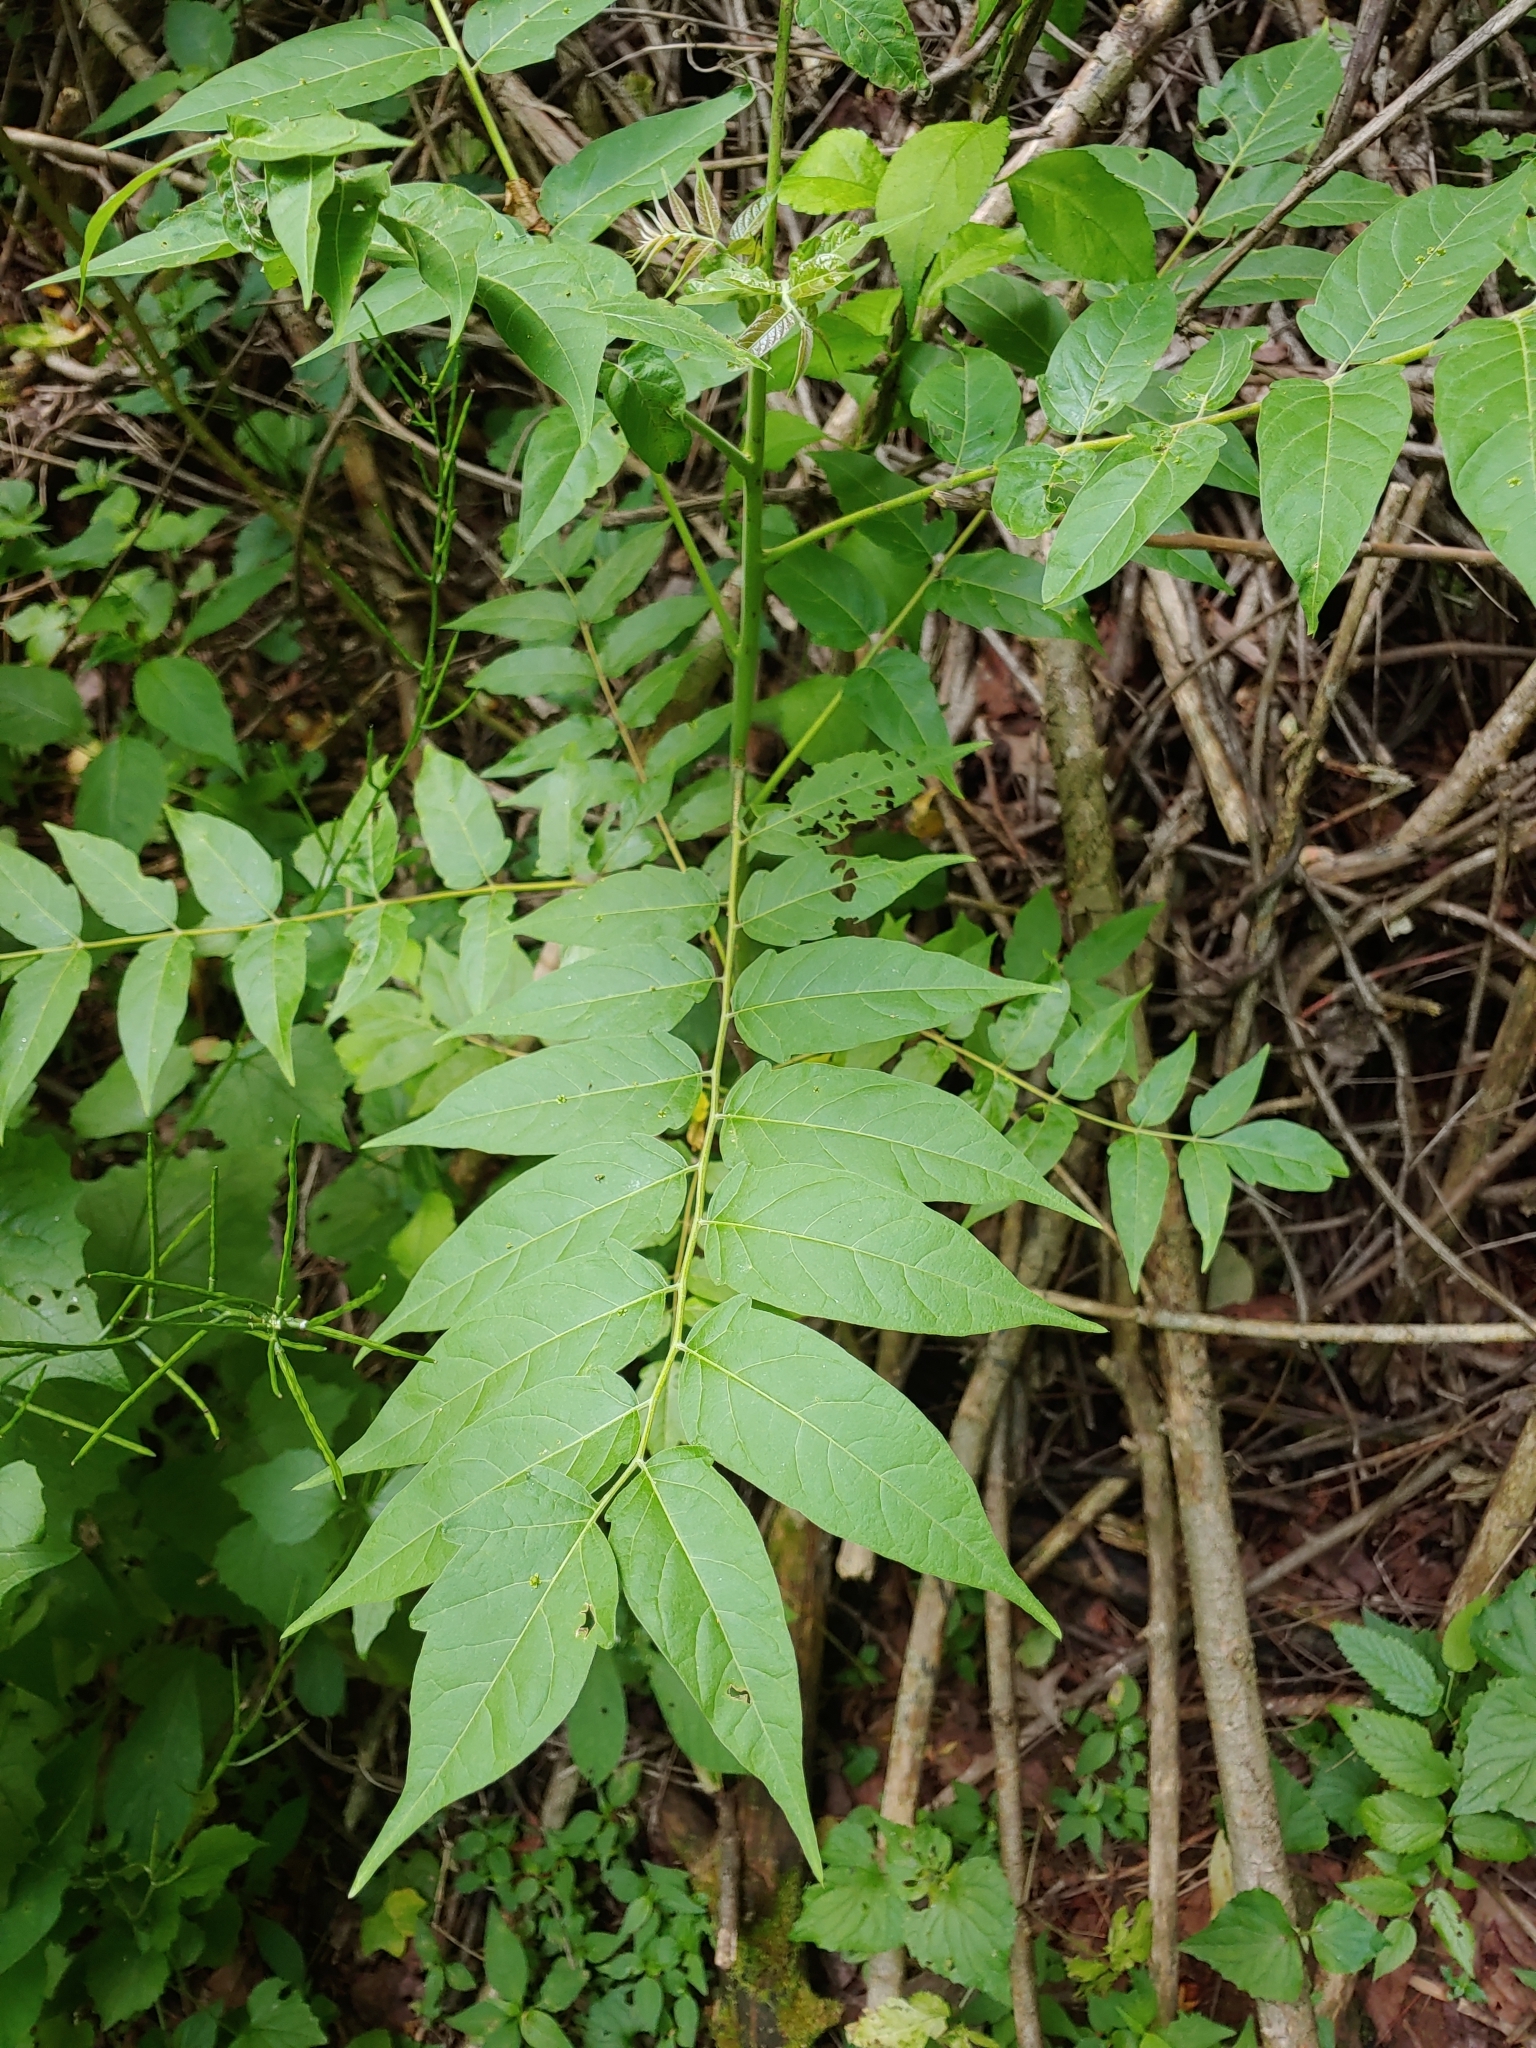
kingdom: Plantae
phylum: Tracheophyta
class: Magnoliopsida
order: Sapindales
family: Simaroubaceae
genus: Ailanthus
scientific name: Ailanthus altissima
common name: Tree-of-heaven
